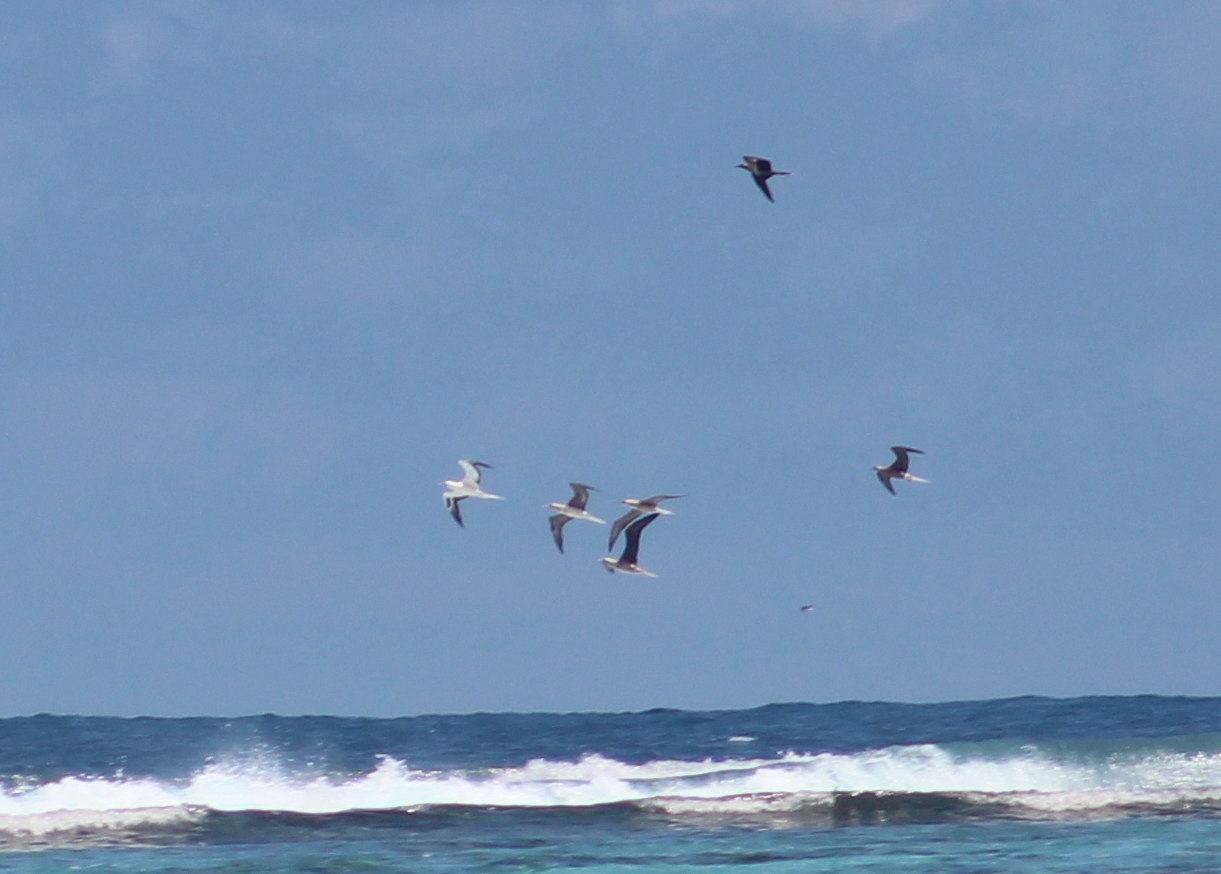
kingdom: Animalia
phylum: Chordata
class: Aves
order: Suliformes
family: Sulidae
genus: Sula
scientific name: Sula sula
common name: Red-footed booby
